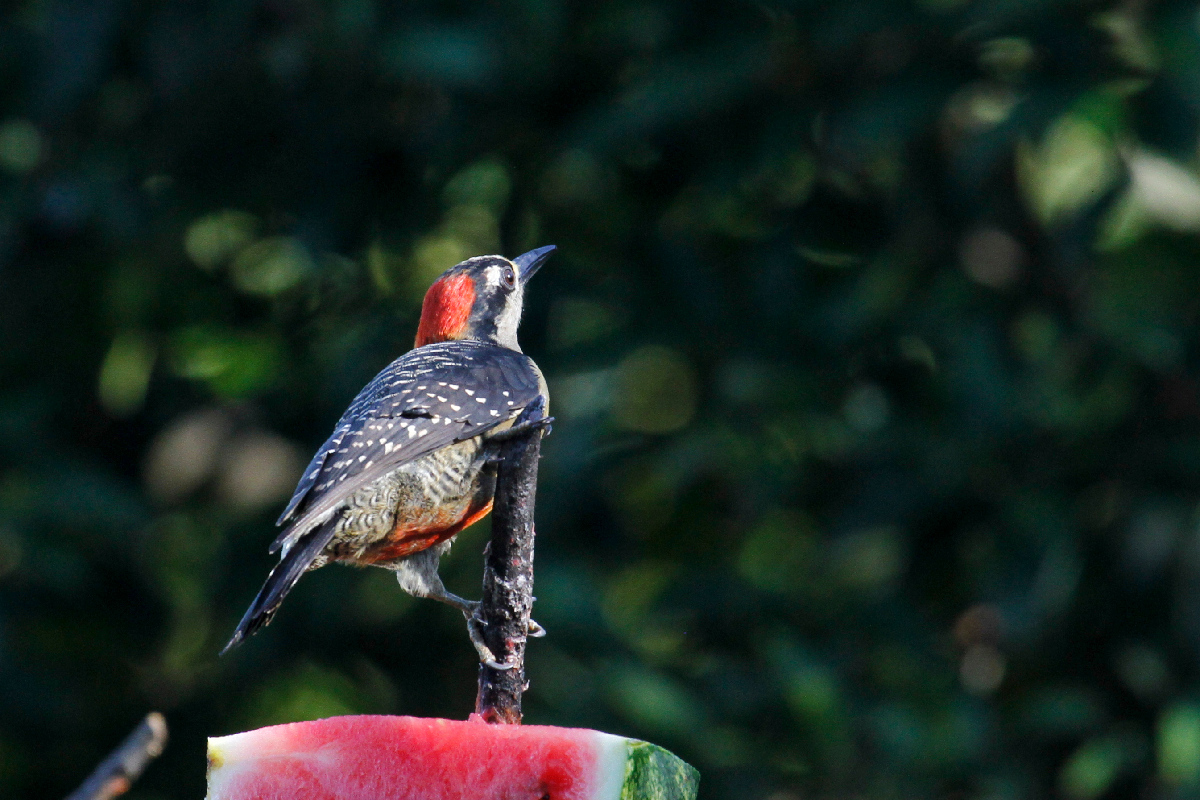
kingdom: Animalia
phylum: Chordata
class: Aves
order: Piciformes
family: Picidae
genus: Melanerpes
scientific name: Melanerpes pucherani
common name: Black-cheeked woodpecker
